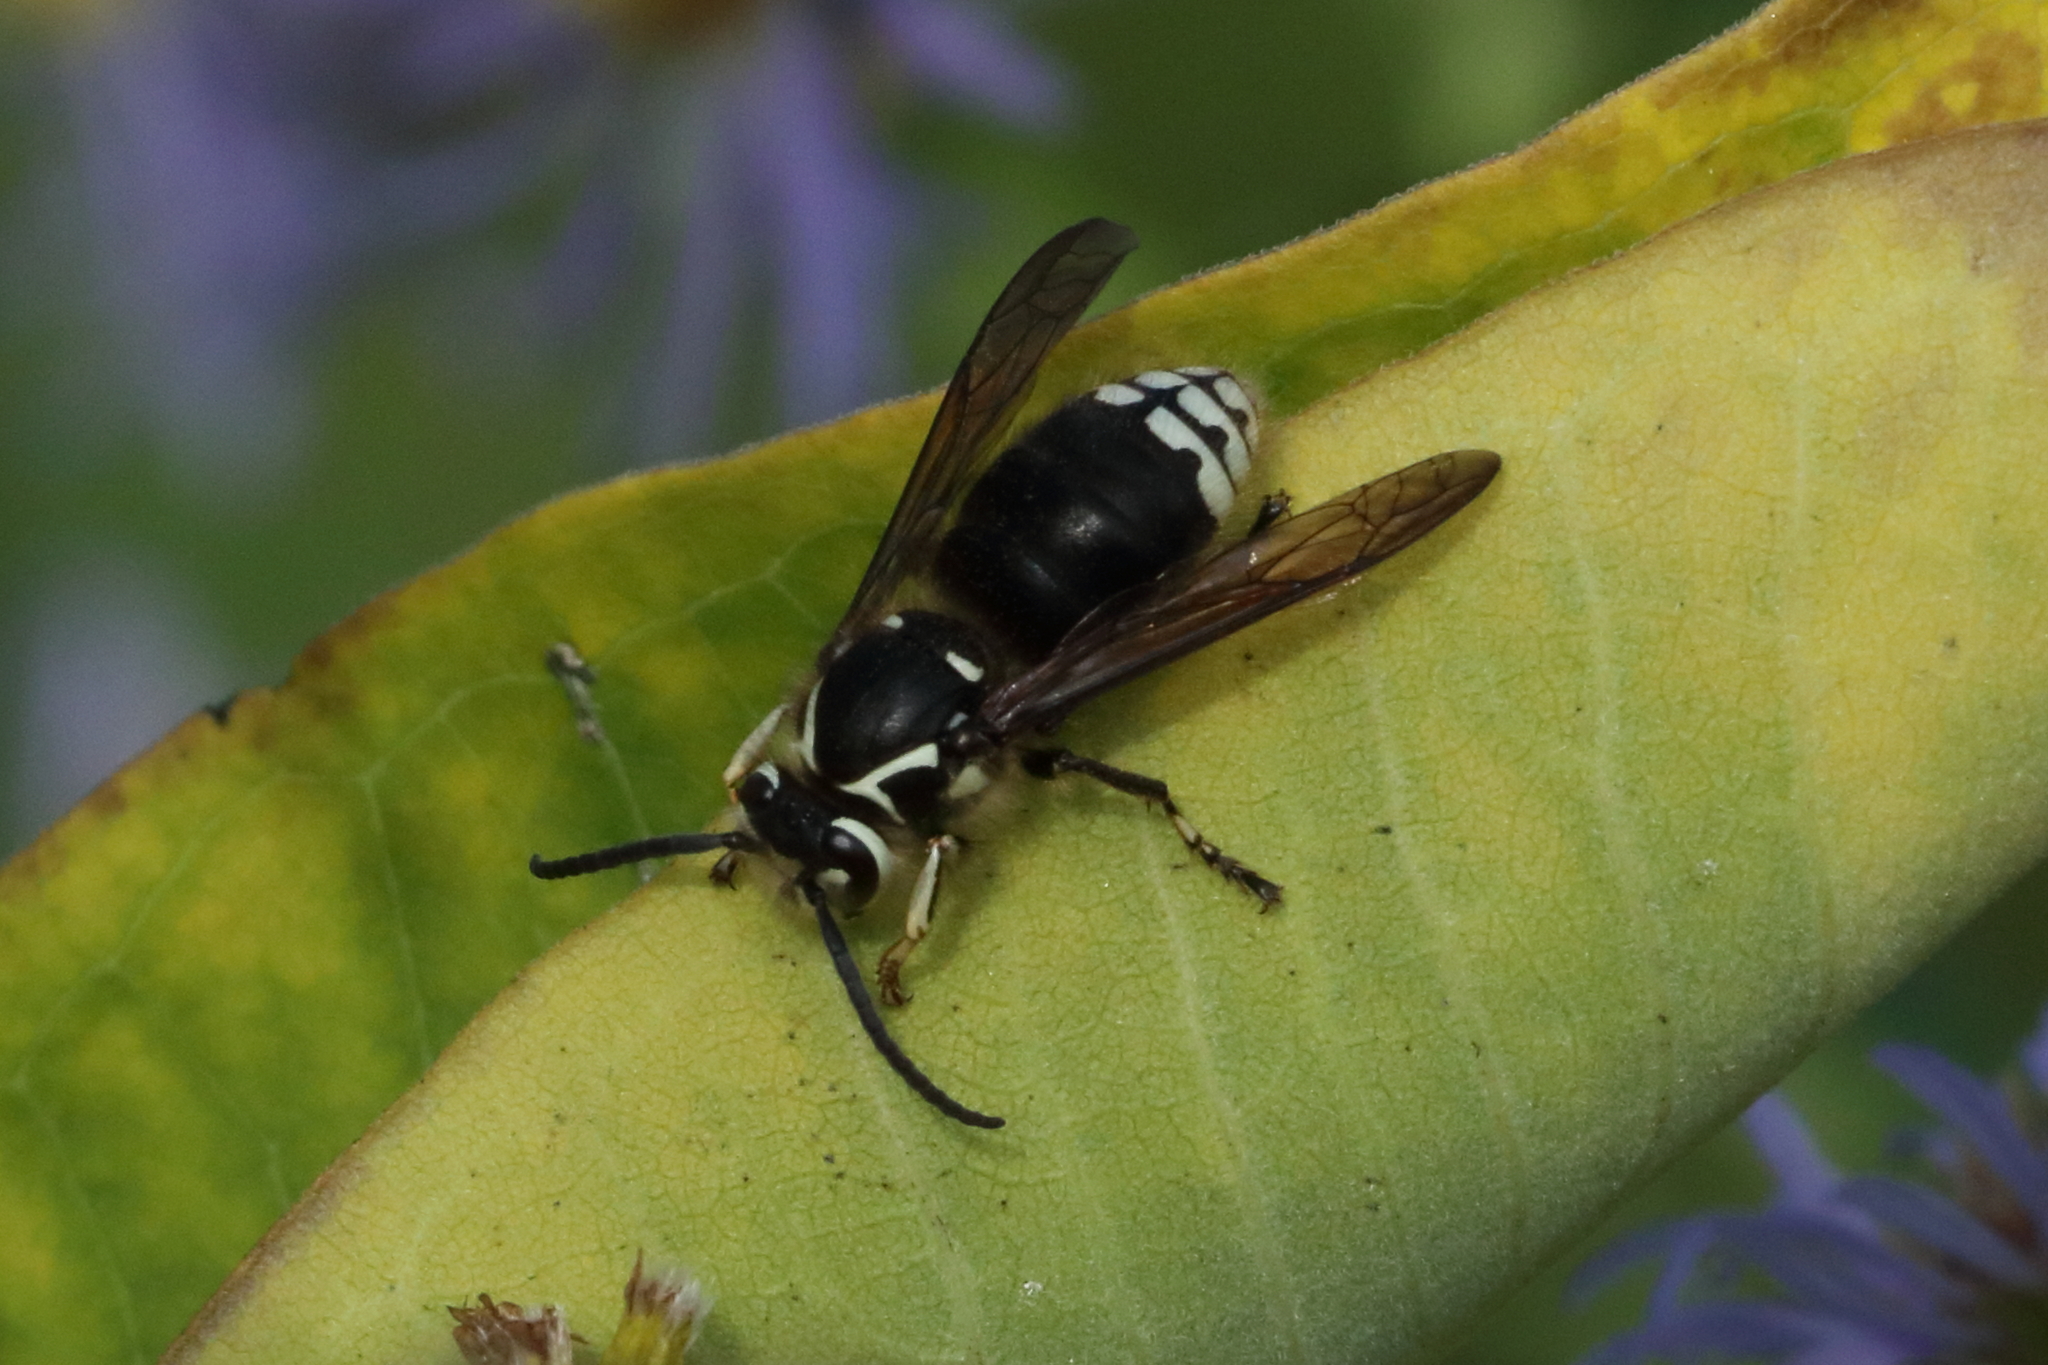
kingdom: Animalia
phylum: Arthropoda
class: Insecta
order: Hymenoptera
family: Vespidae
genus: Dolichovespula
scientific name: Dolichovespula maculata
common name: Bald-faced hornet
